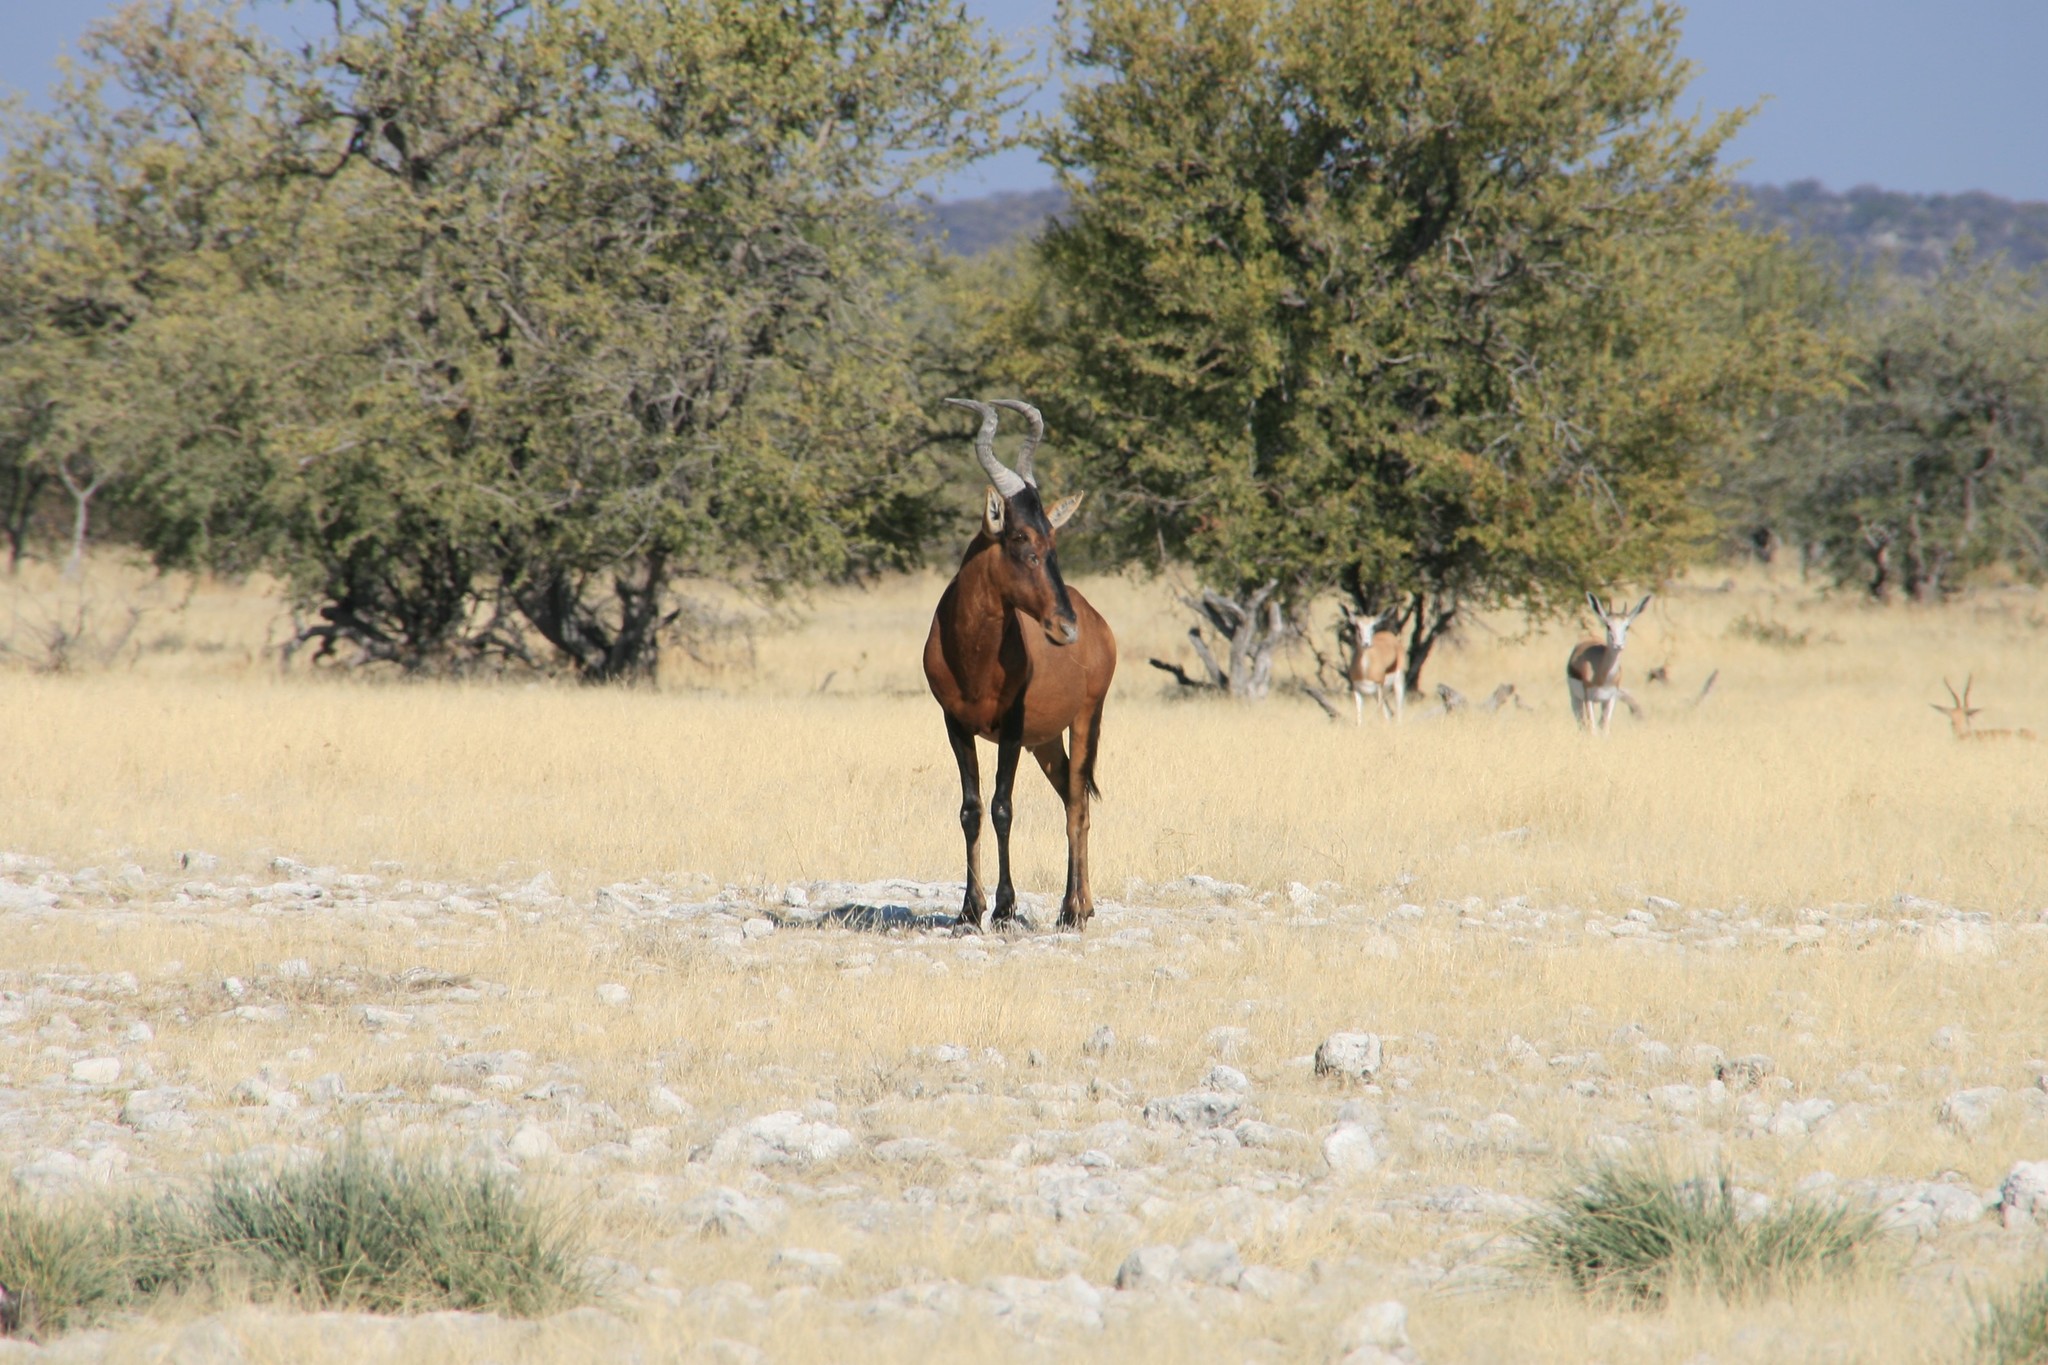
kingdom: Animalia
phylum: Chordata
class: Mammalia
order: Artiodactyla
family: Bovidae
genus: Alcelaphus
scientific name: Alcelaphus caama
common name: Red hartebeest
